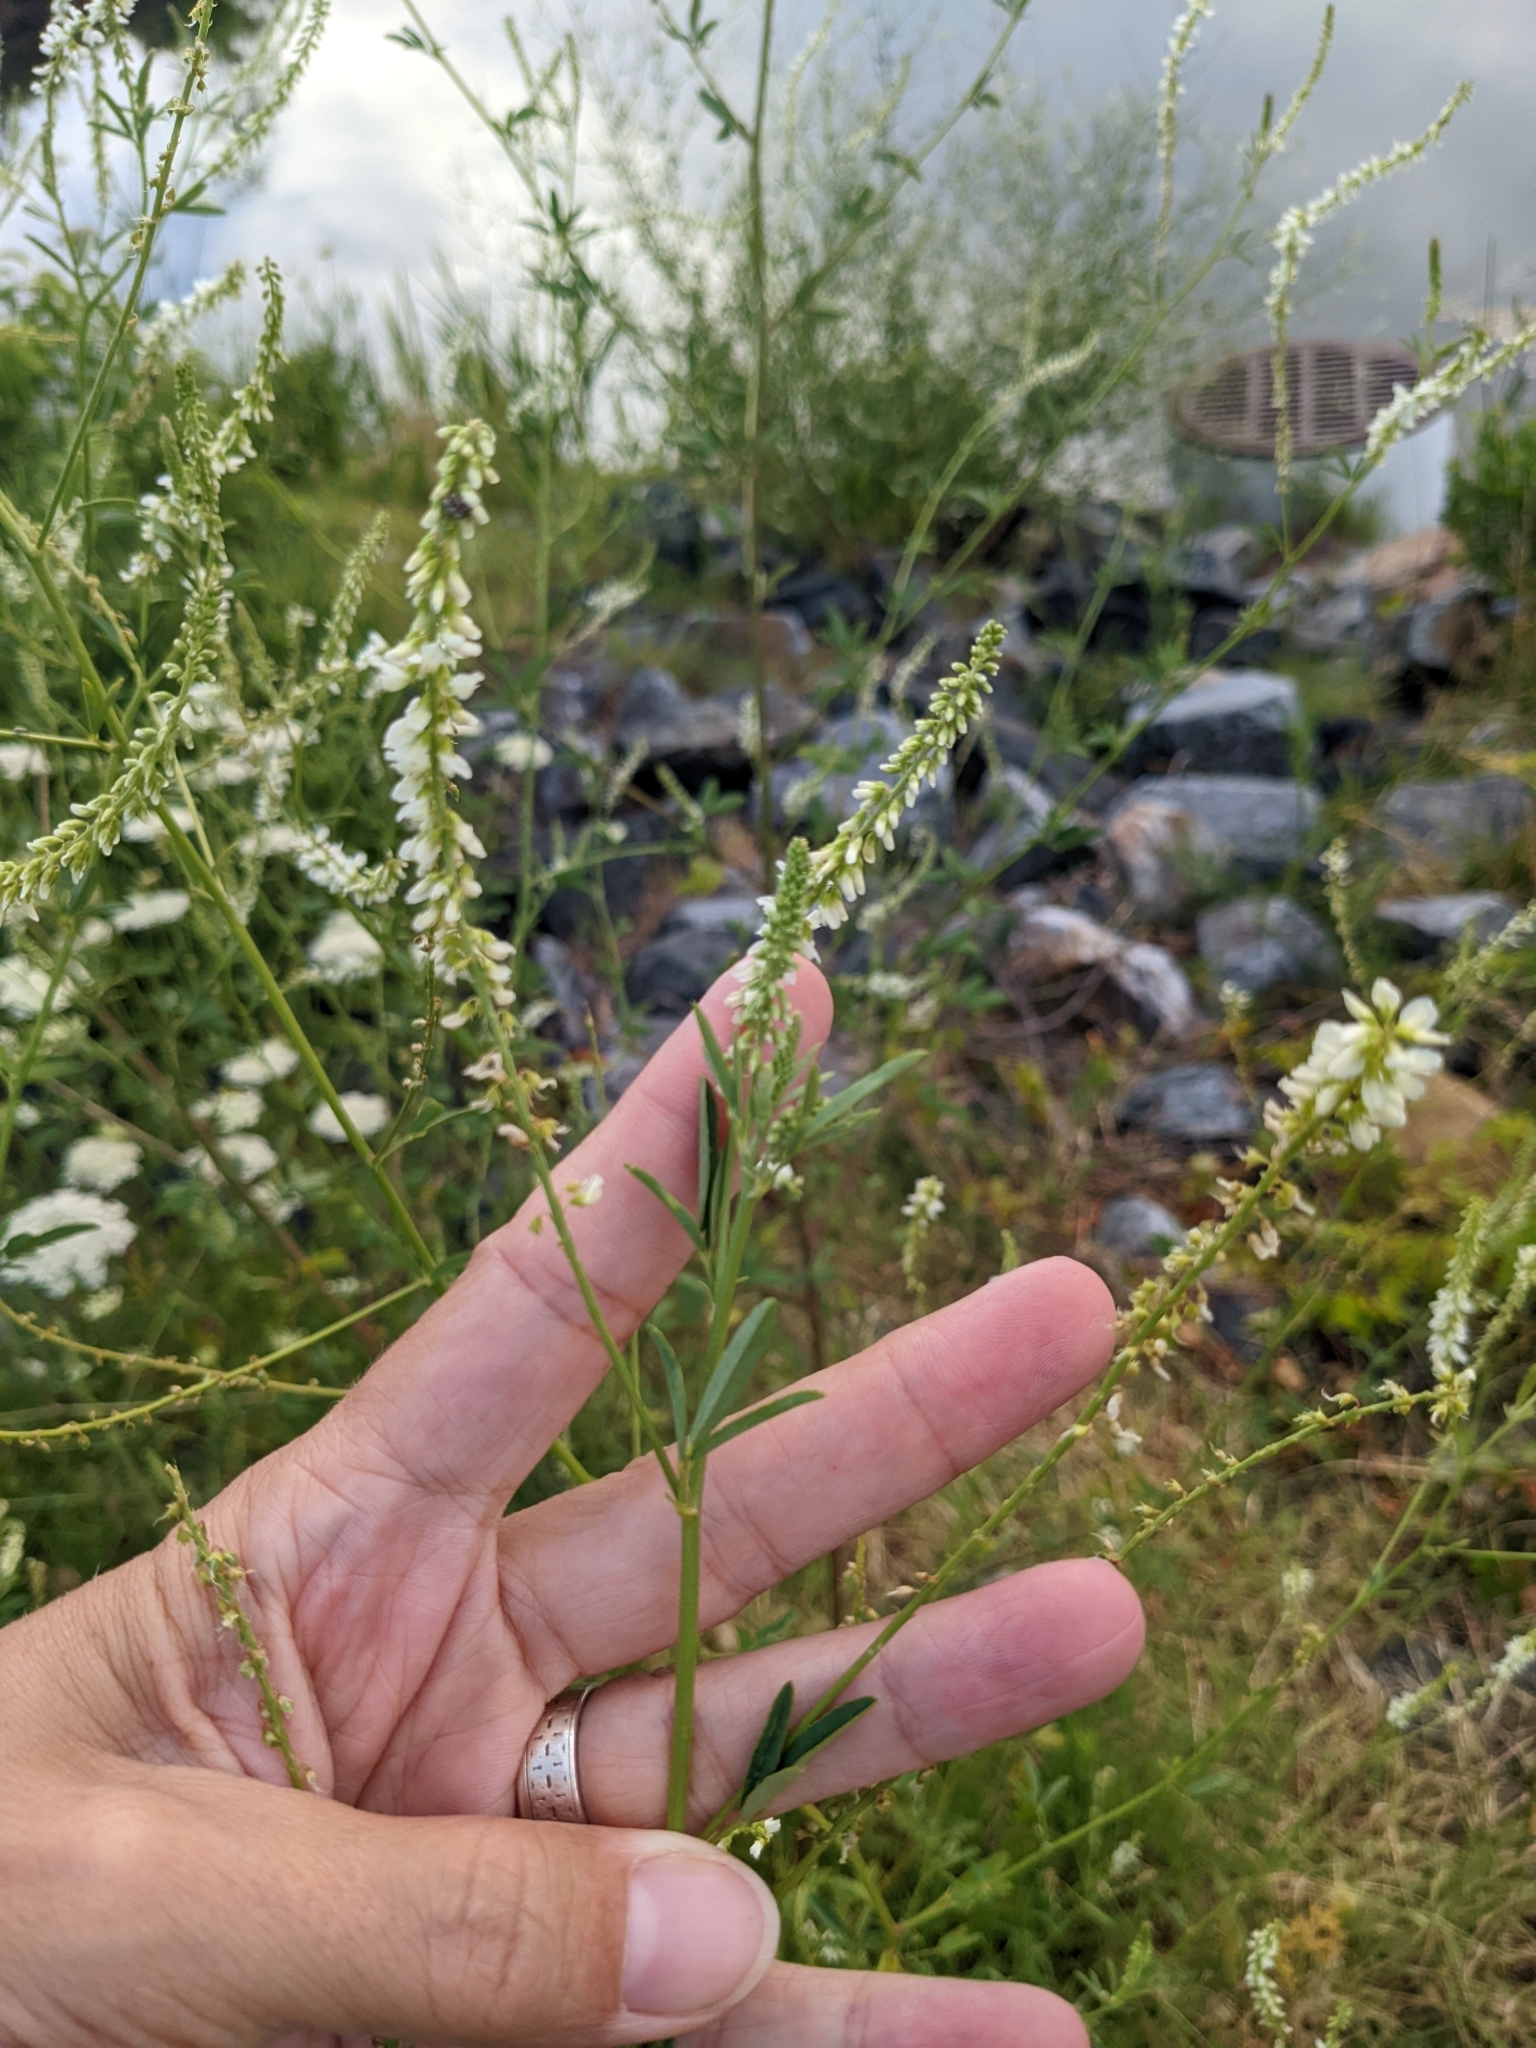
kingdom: Plantae
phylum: Tracheophyta
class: Magnoliopsida
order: Fabales
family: Fabaceae
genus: Melilotus
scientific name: Melilotus albus
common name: White melilot
